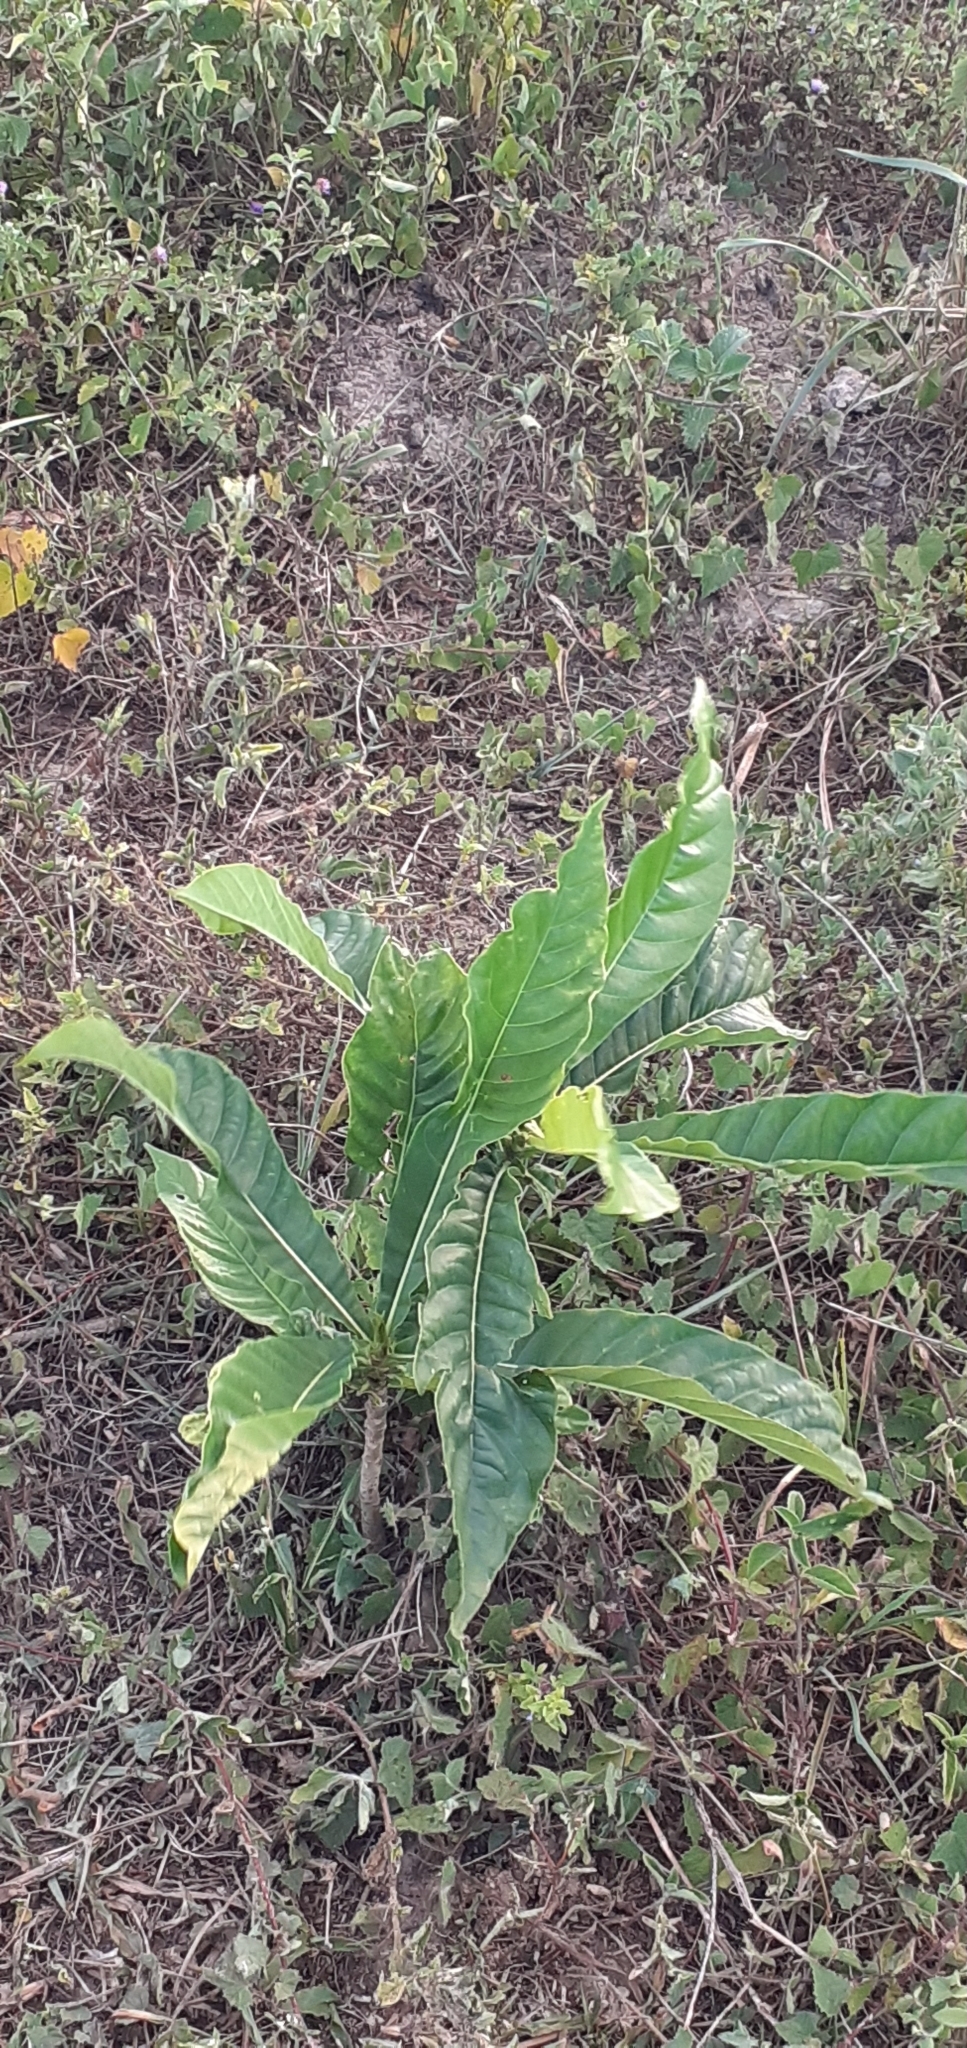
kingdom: Plantae
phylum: Tracheophyta
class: Magnoliopsida
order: Gentianales
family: Rubiaceae
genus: Genipa
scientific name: Genipa americana
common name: Genipap
